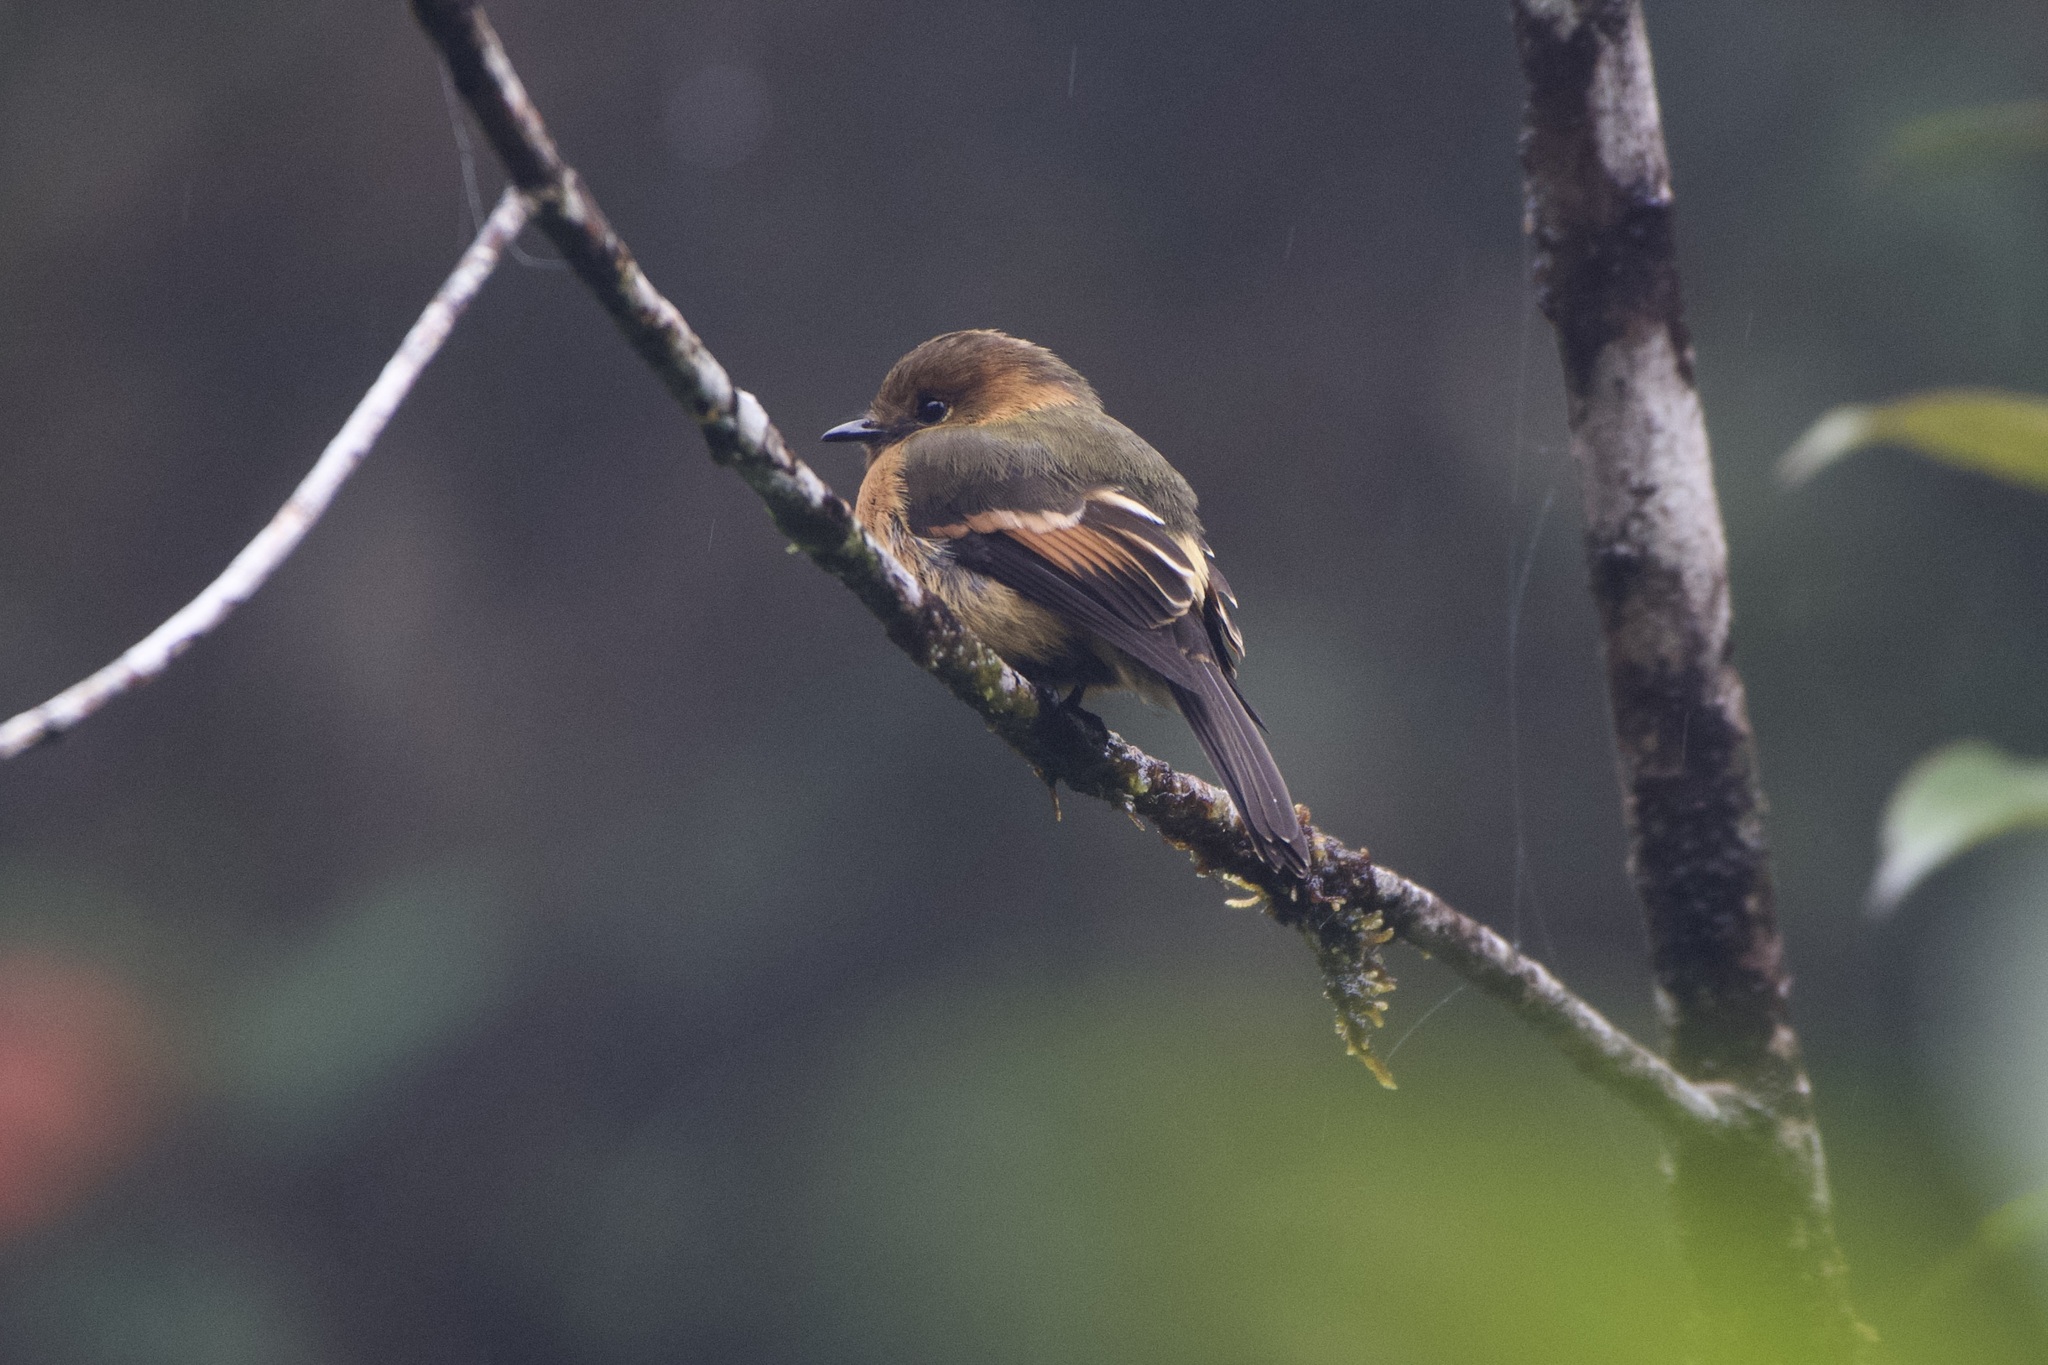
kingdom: Animalia
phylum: Chordata
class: Aves
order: Passeriformes
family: Tyrannidae
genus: Pyrrhomyias
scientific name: Pyrrhomyias cinnamomeus
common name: Cinnamon flycatcher
